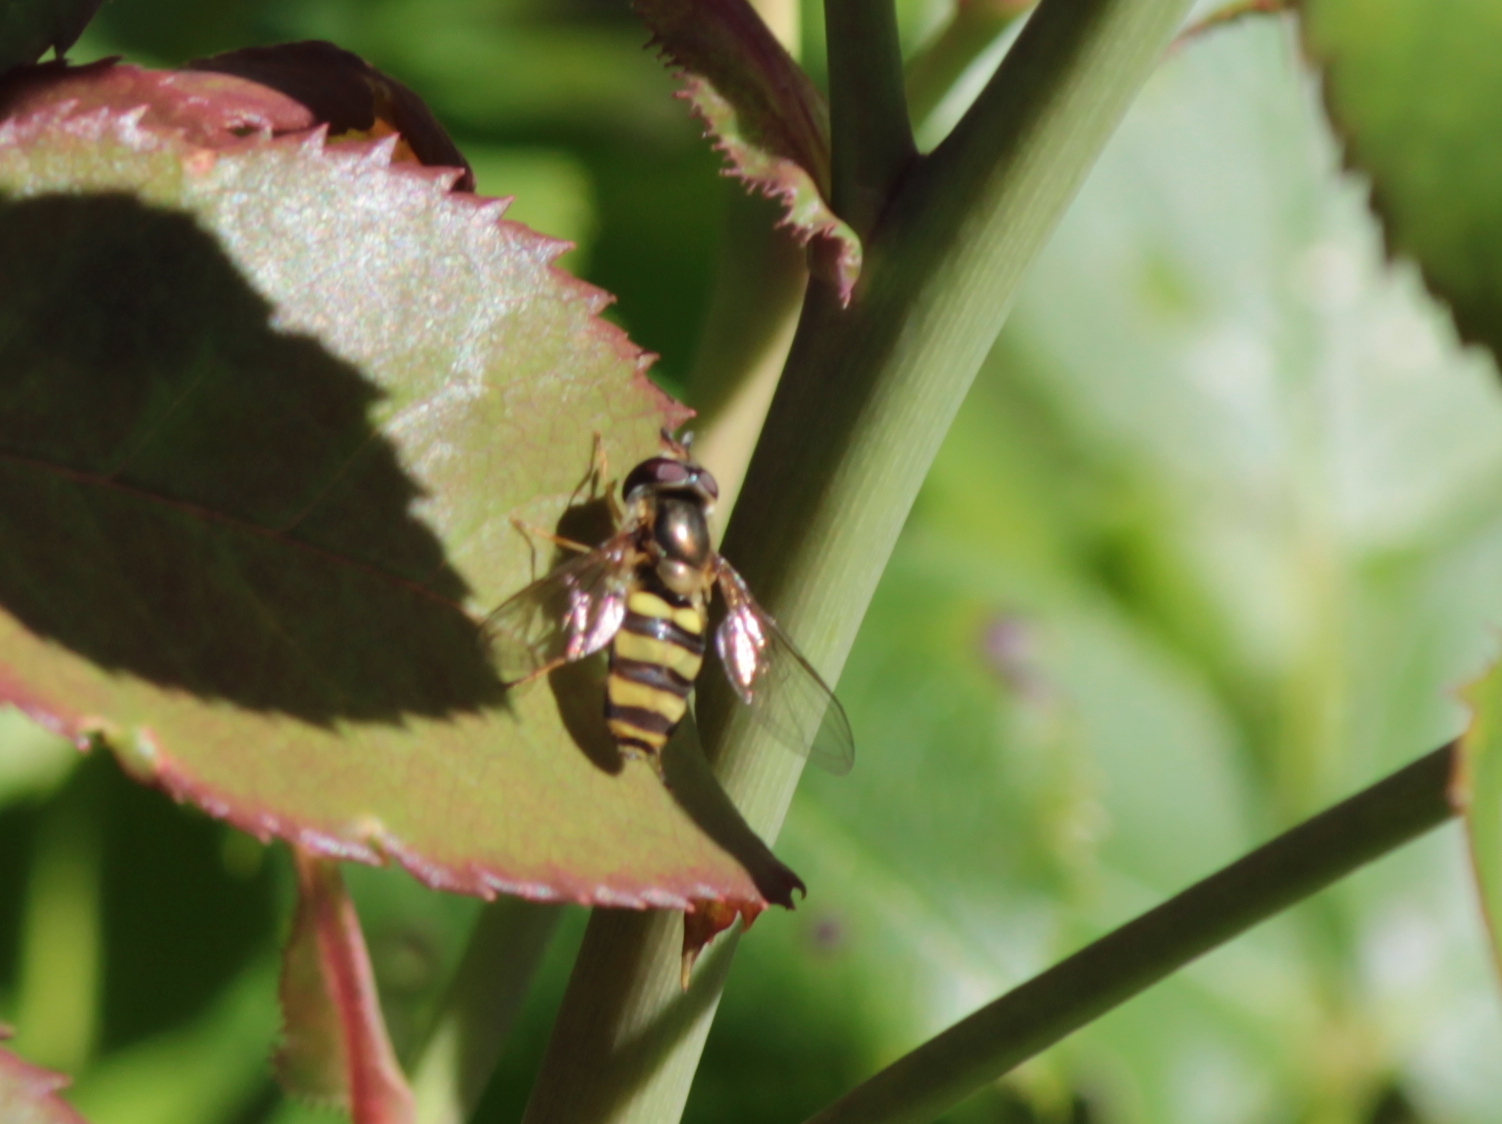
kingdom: Animalia
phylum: Arthropoda
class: Insecta
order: Diptera
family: Syrphidae
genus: Eupeodes
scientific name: Eupeodes
